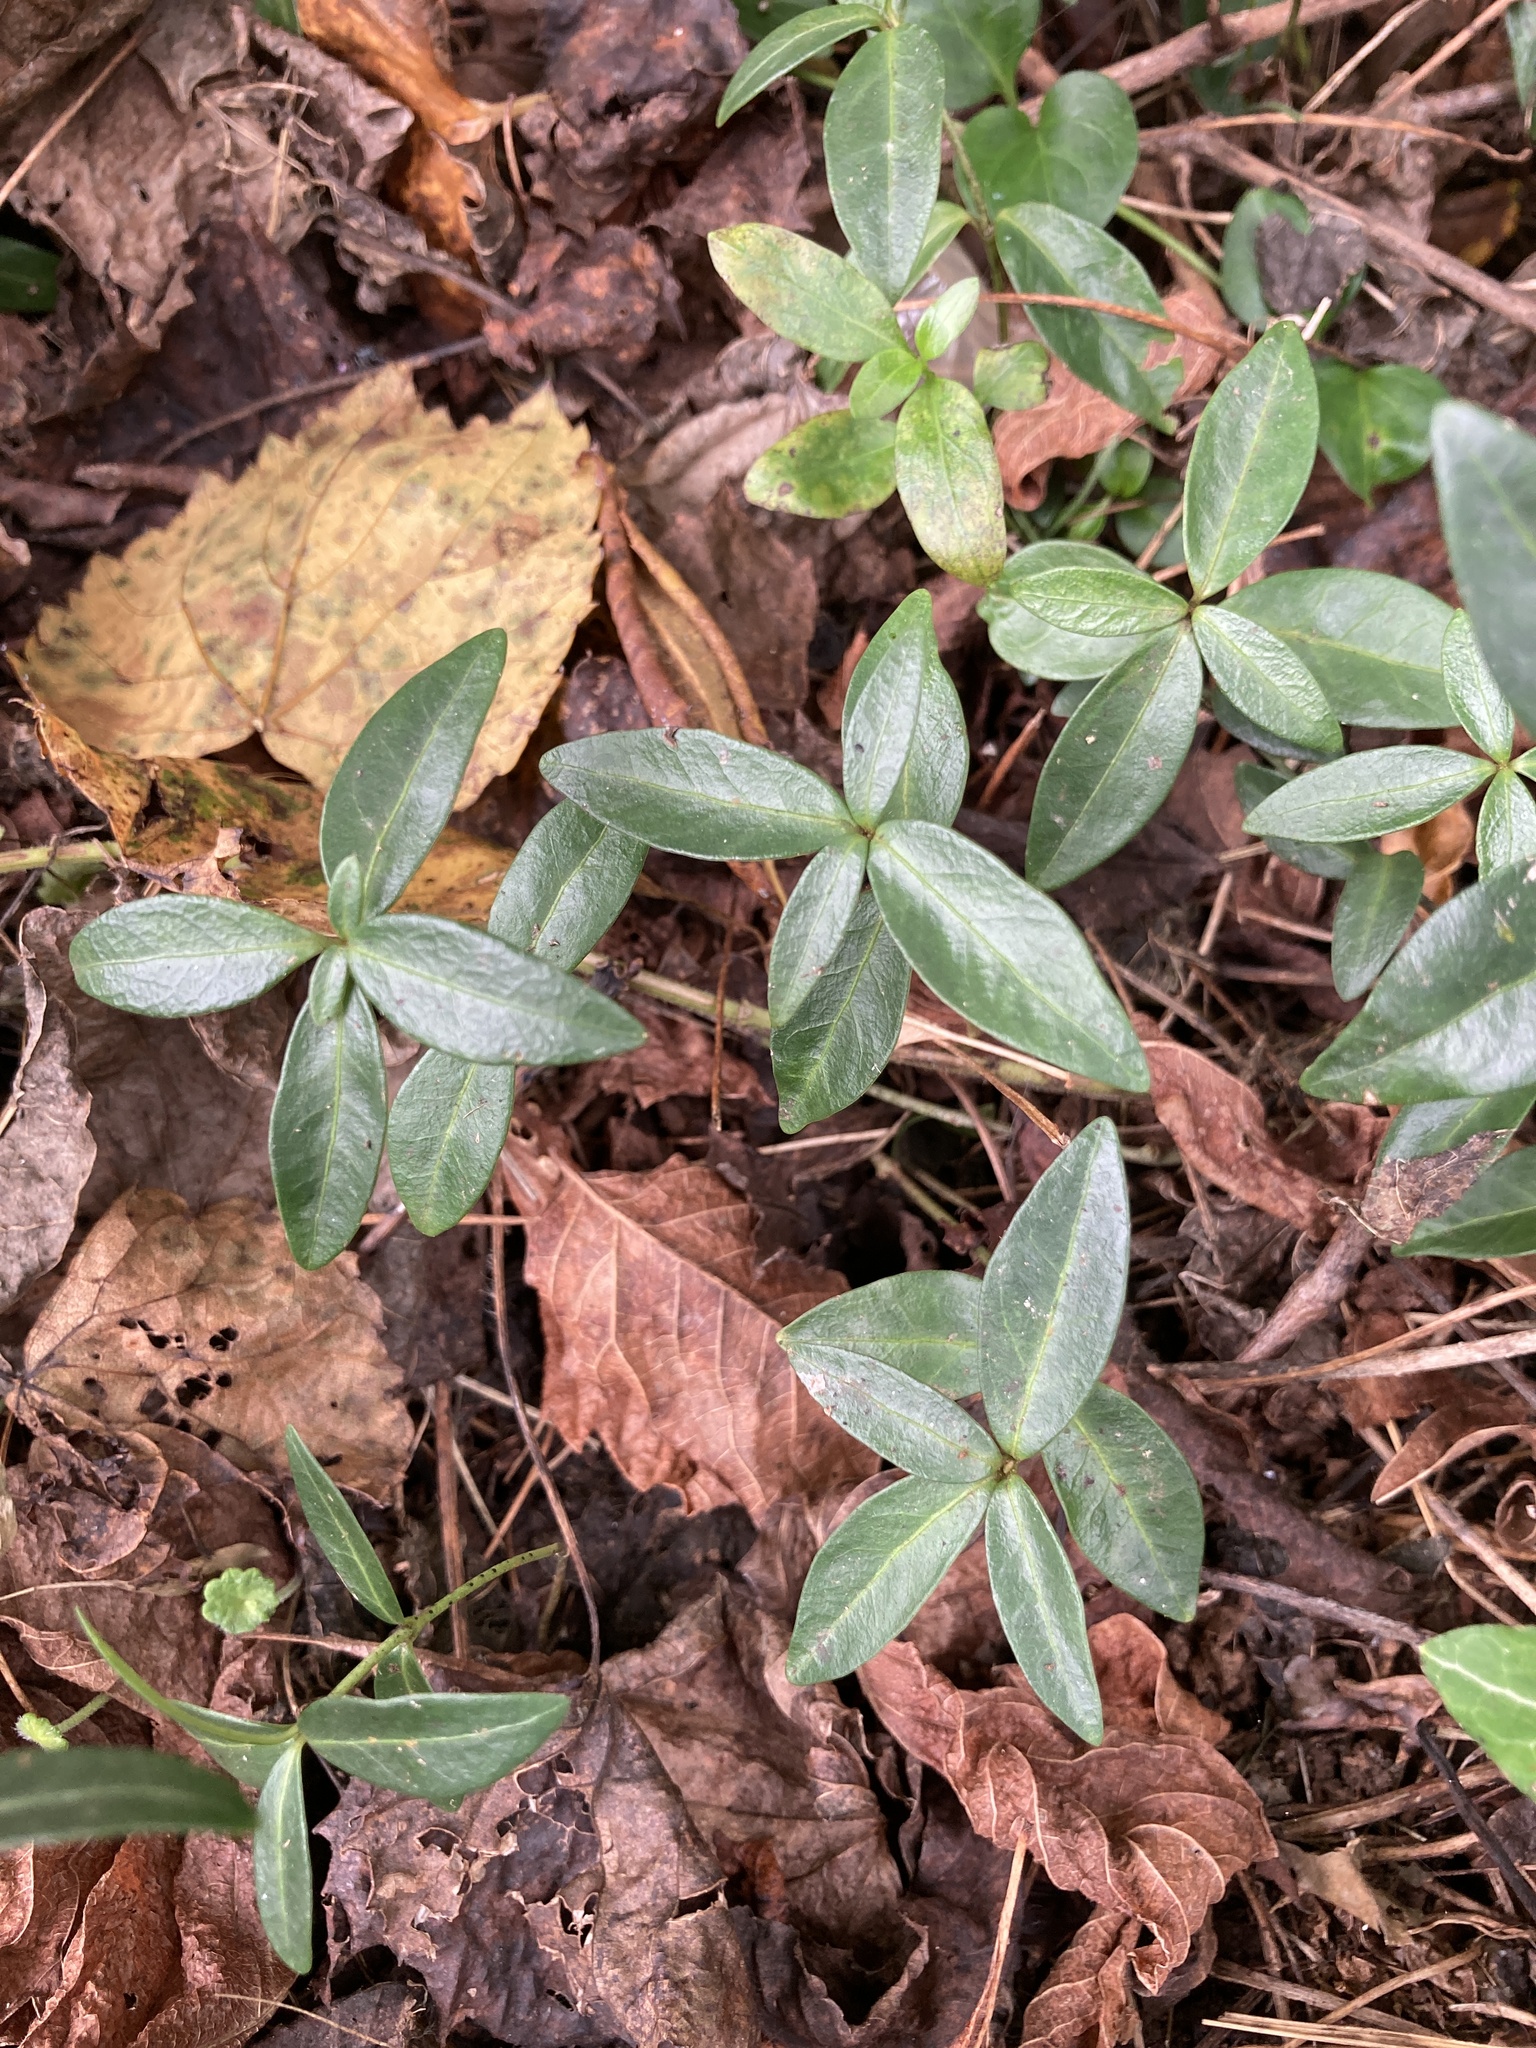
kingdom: Plantae
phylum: Tracheophyta
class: Magnoliopsida
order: Gentianales
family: Apocynaceae
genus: Vinca
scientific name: Vinca minor
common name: Lesser periwinkle
